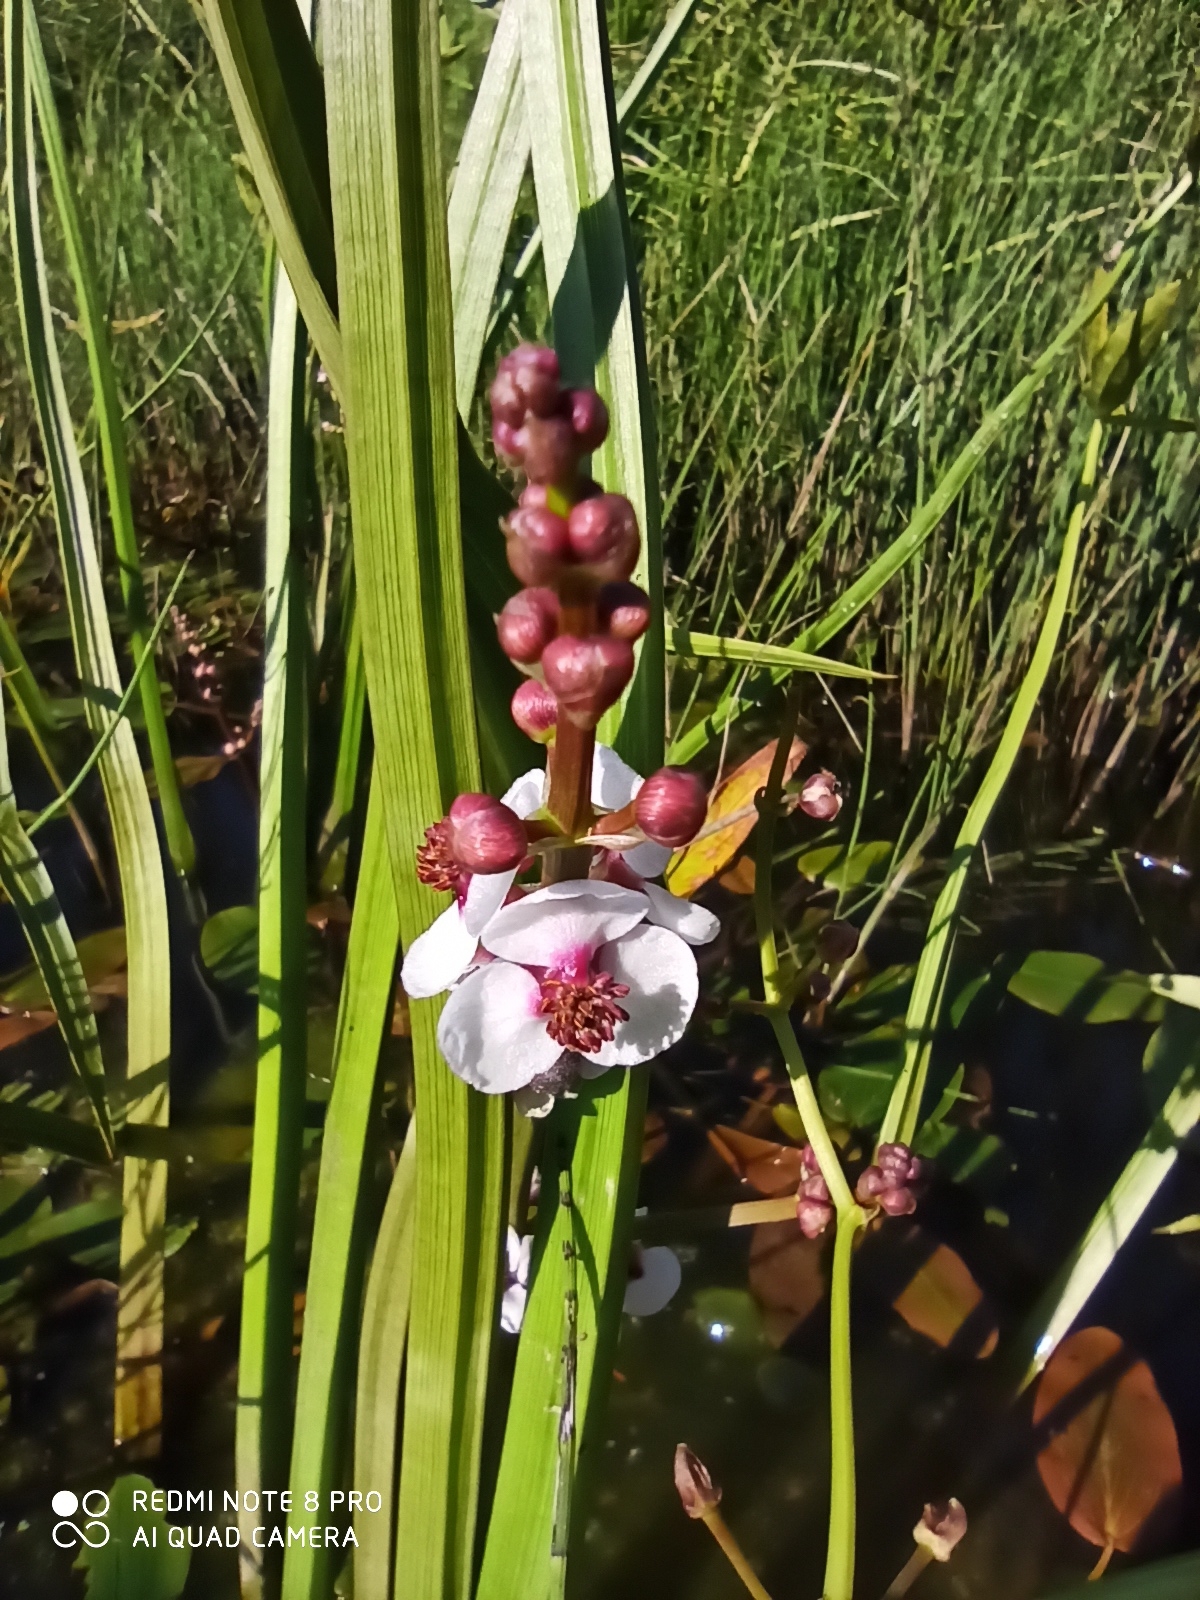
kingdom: Plantae
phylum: Tracheophyta
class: Liliopsida
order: Alismatales
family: Alismataceae
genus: Sagittaria
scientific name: Sagittaria sagittifolia
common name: Arrowhead
